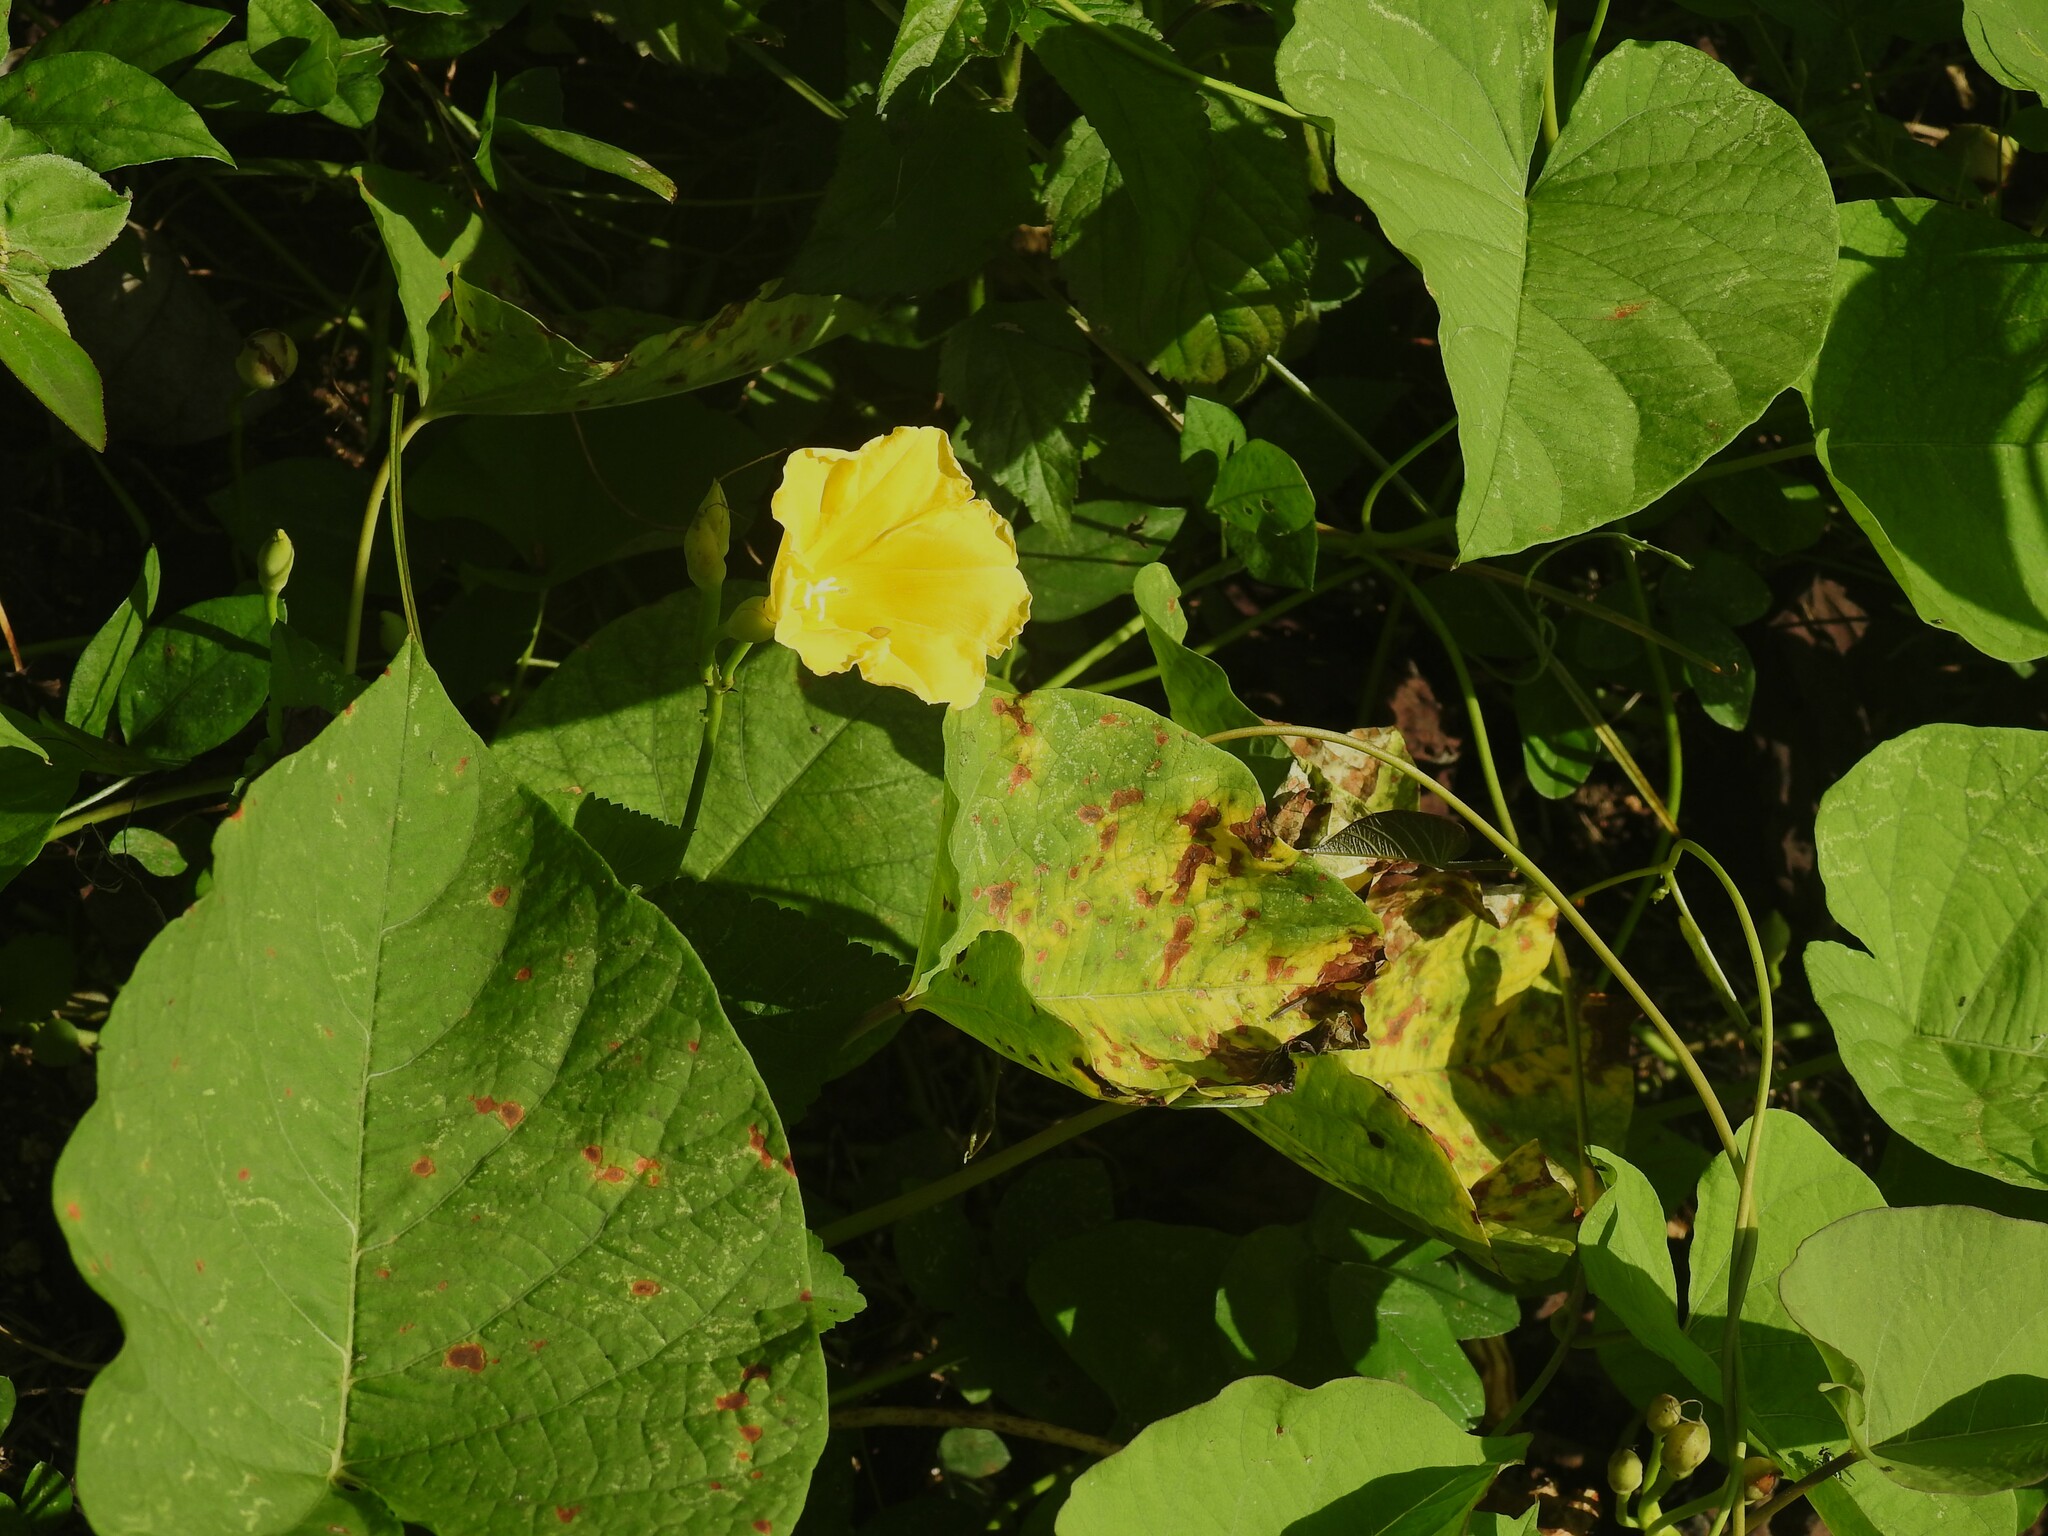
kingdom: Plantae
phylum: Tracheophyta
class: Magnoliopsida
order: Solanales
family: Convolvulaceae
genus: Camonea
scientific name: Camonea umbellata
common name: Hogvine
